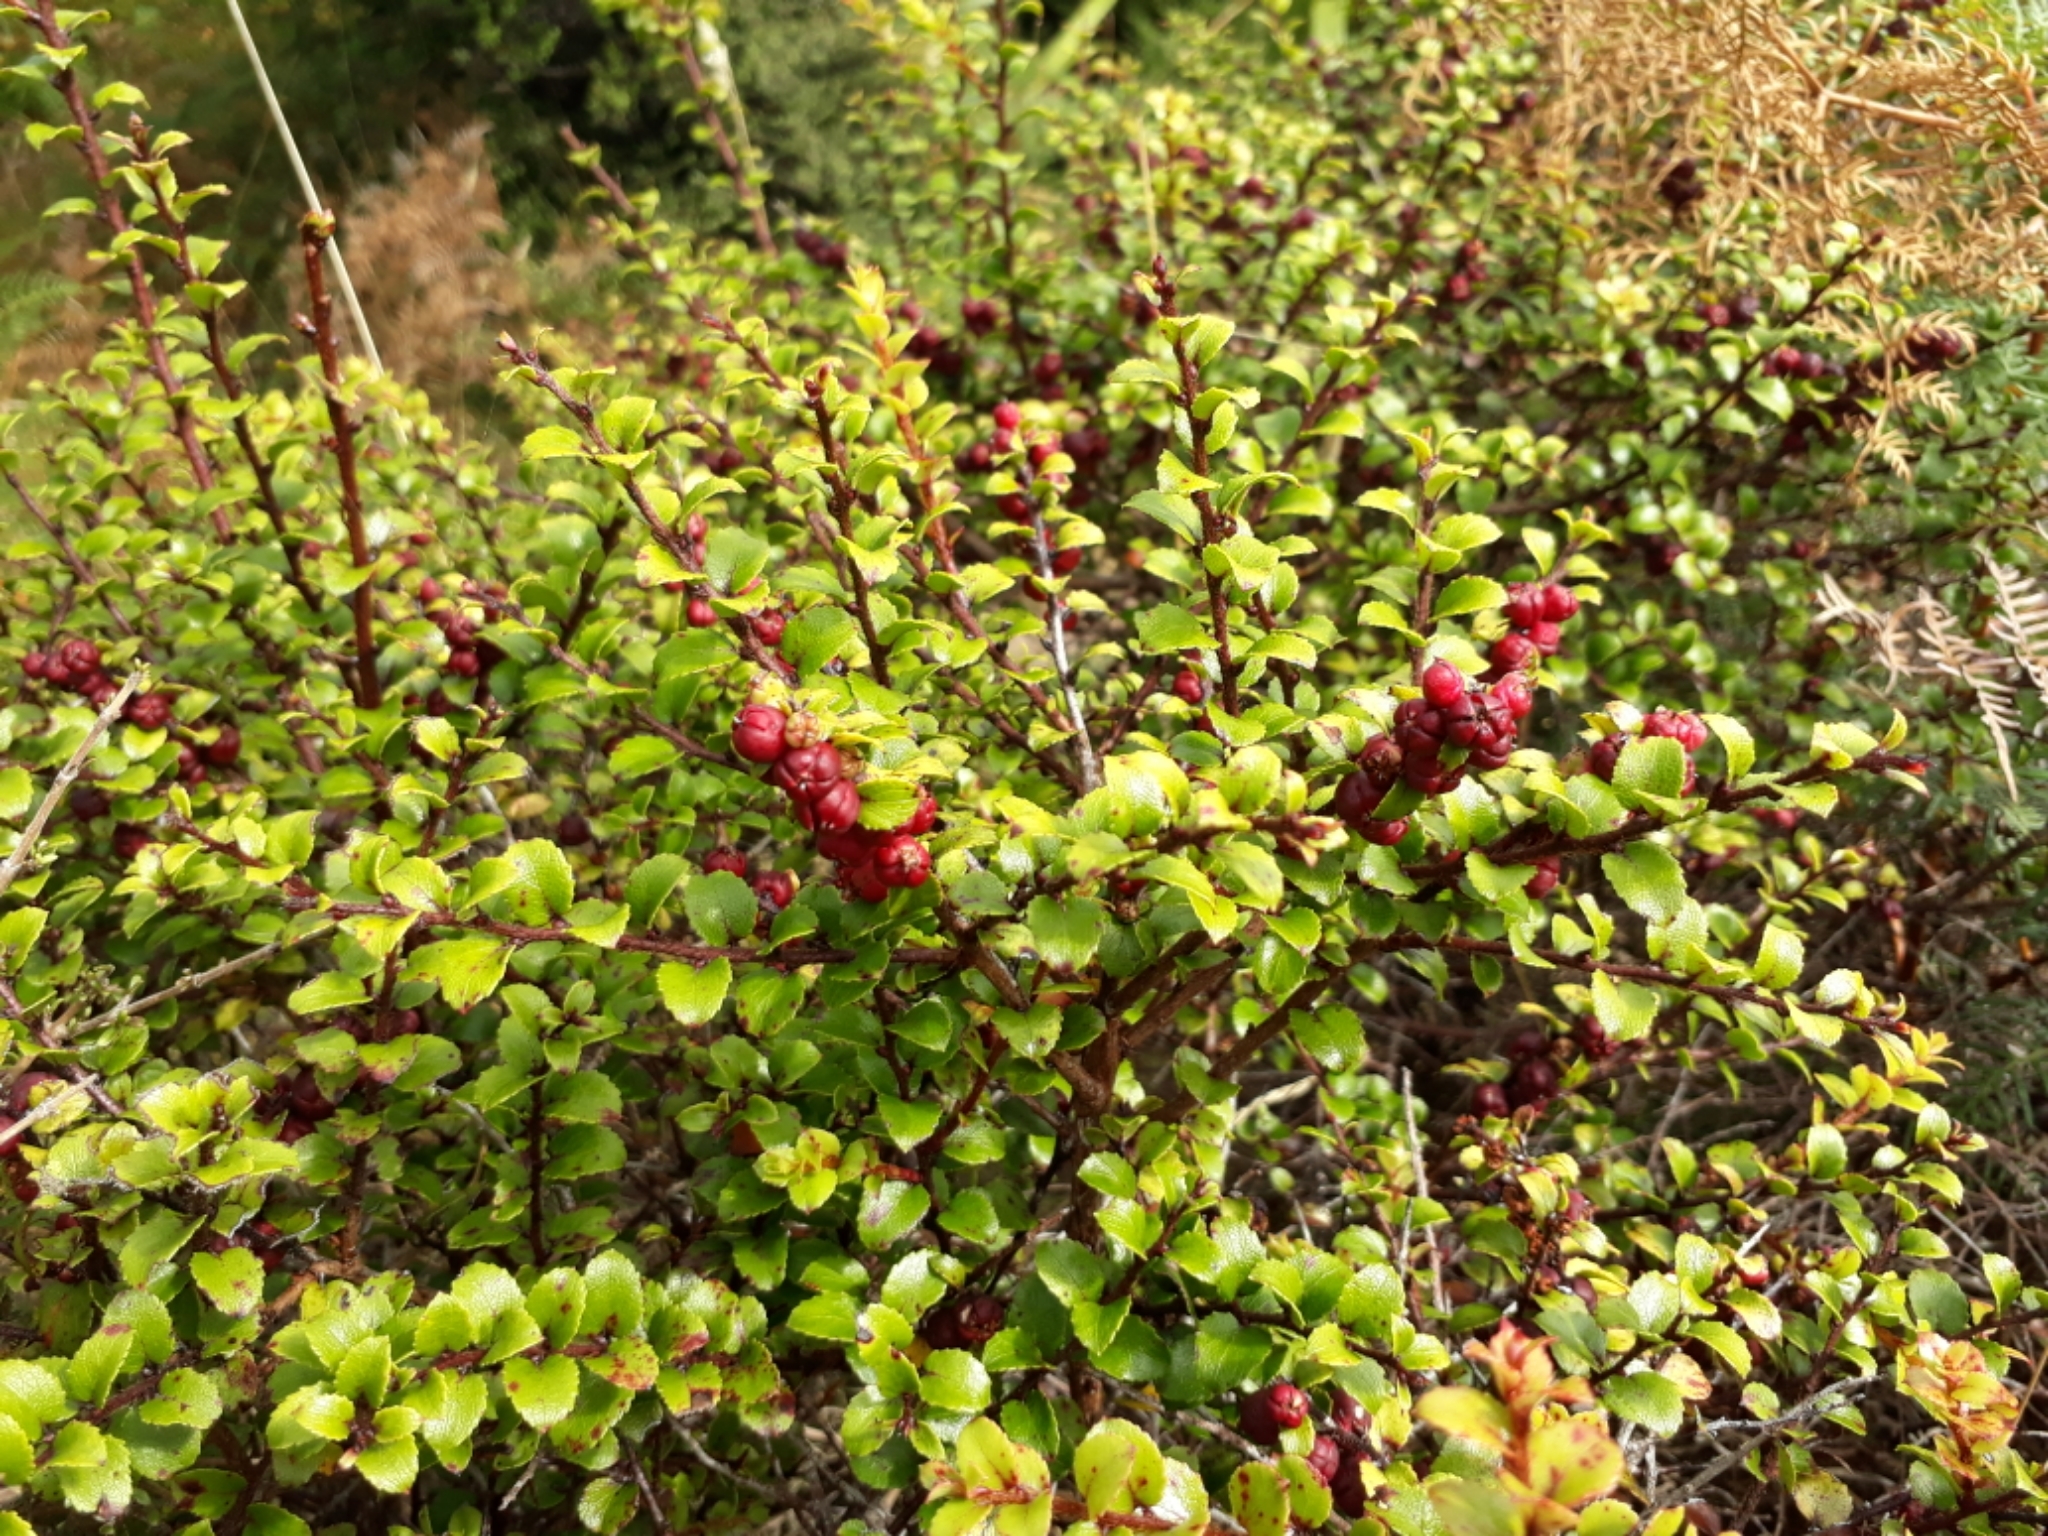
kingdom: Plantae
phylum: Tracheophyta
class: Magnoliopsida
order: Ericales
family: Ericaceae
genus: Gaultheria
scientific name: Gaultheria antipoda
